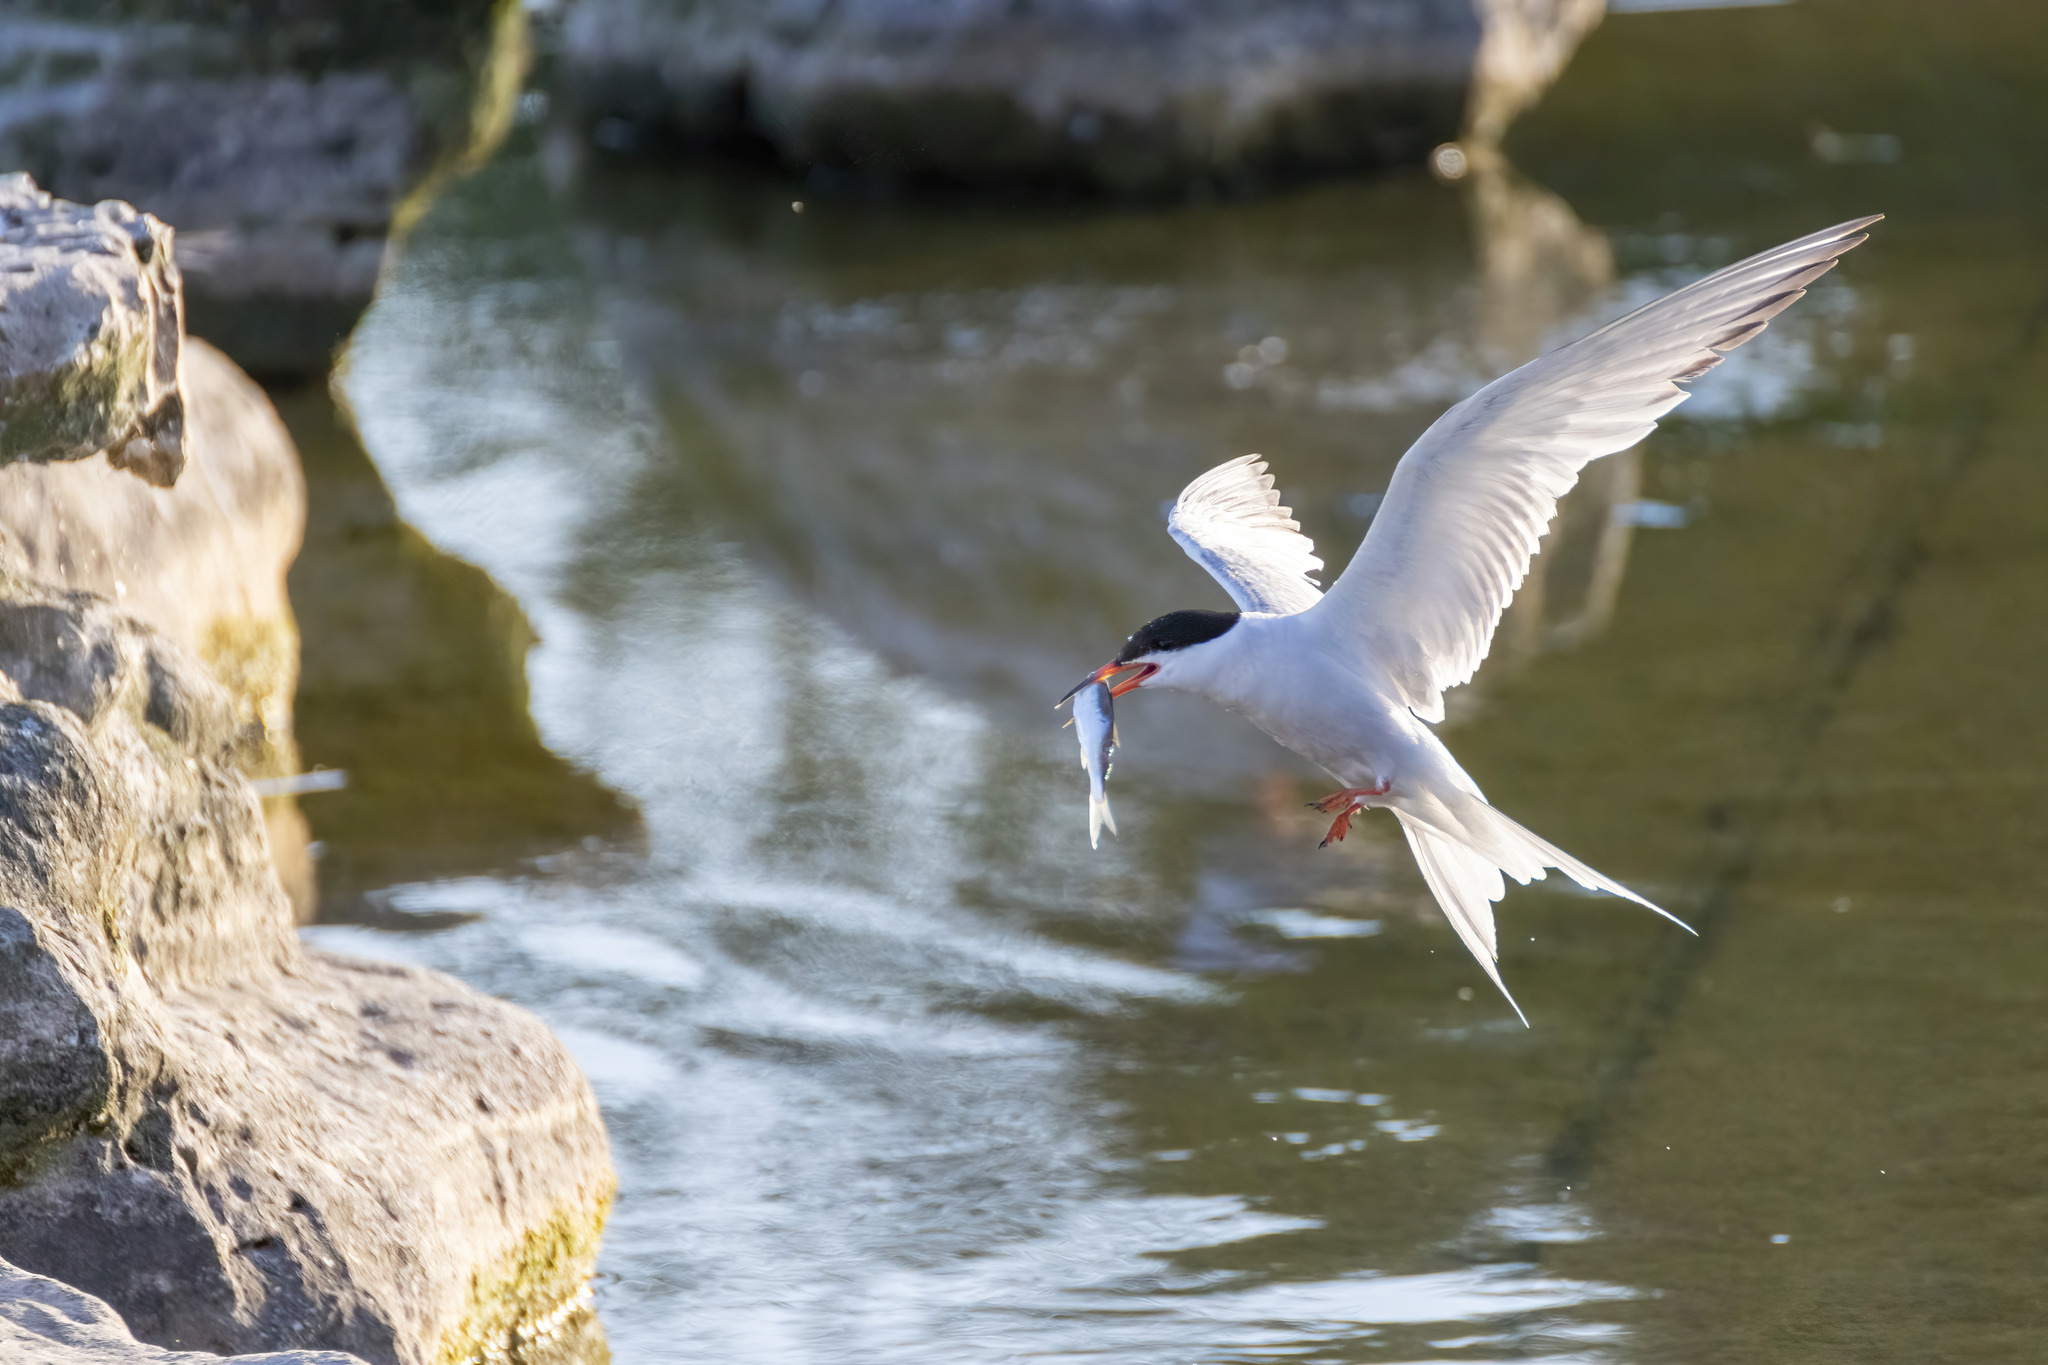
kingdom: Animalia
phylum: Chordata
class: Aves
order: Charadriiformes
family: Laridae
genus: Sterna
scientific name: Sterna hirundo
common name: Common tern
